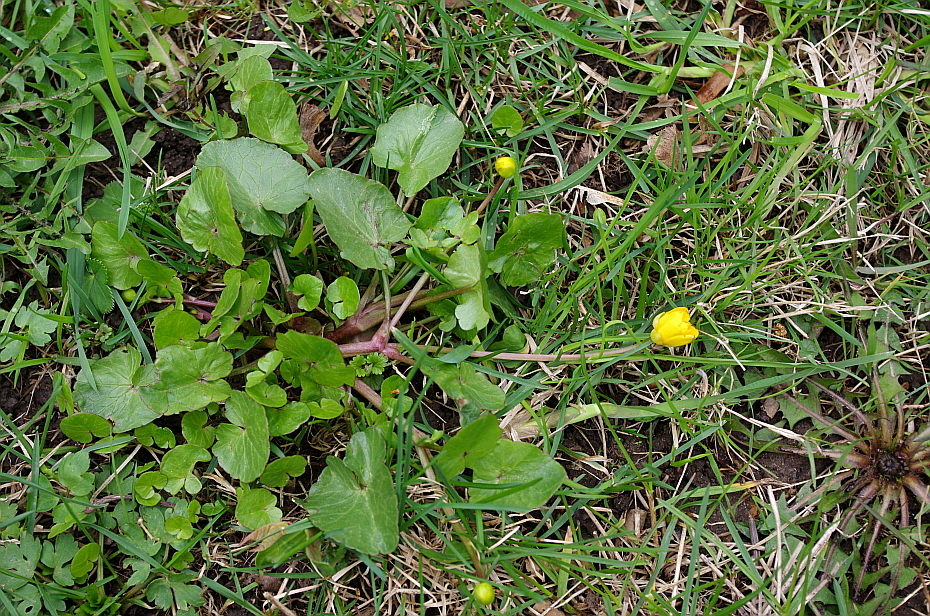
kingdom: Plantae
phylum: Tracheophyta
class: Magnoliopsida
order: Ranunculales
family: Ranunculaceae
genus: Ficaria
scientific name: Ficaria verna
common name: Lesser celandine
